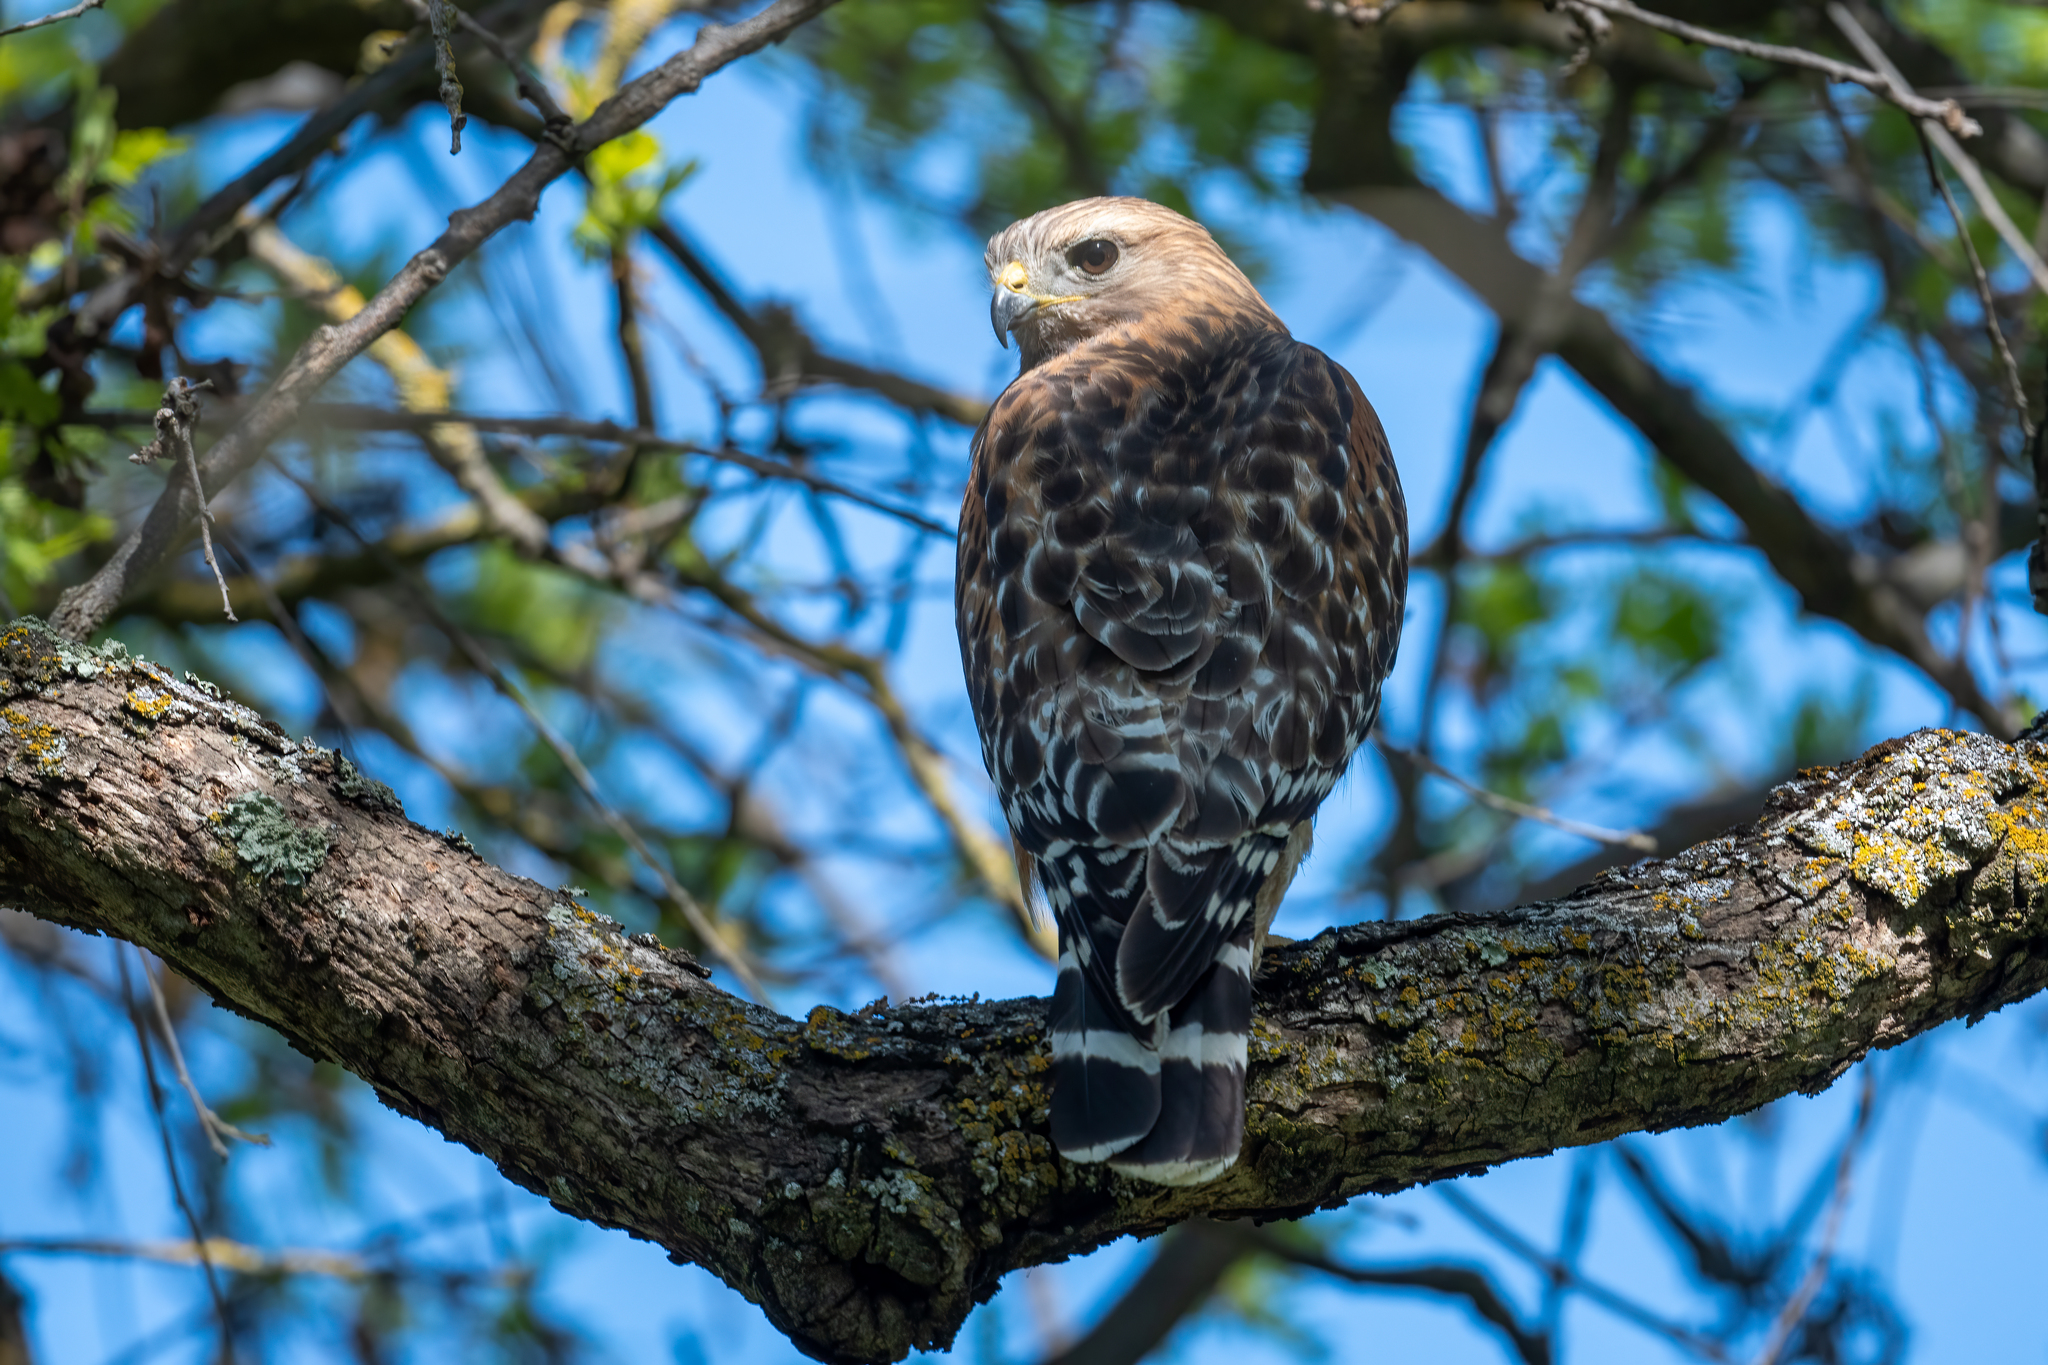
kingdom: Animalia
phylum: Chordata
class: Aves
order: Accipitriformes
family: Accipitridae
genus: Buteo
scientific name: Buteo lineatus
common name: Red-shouldered hawk
